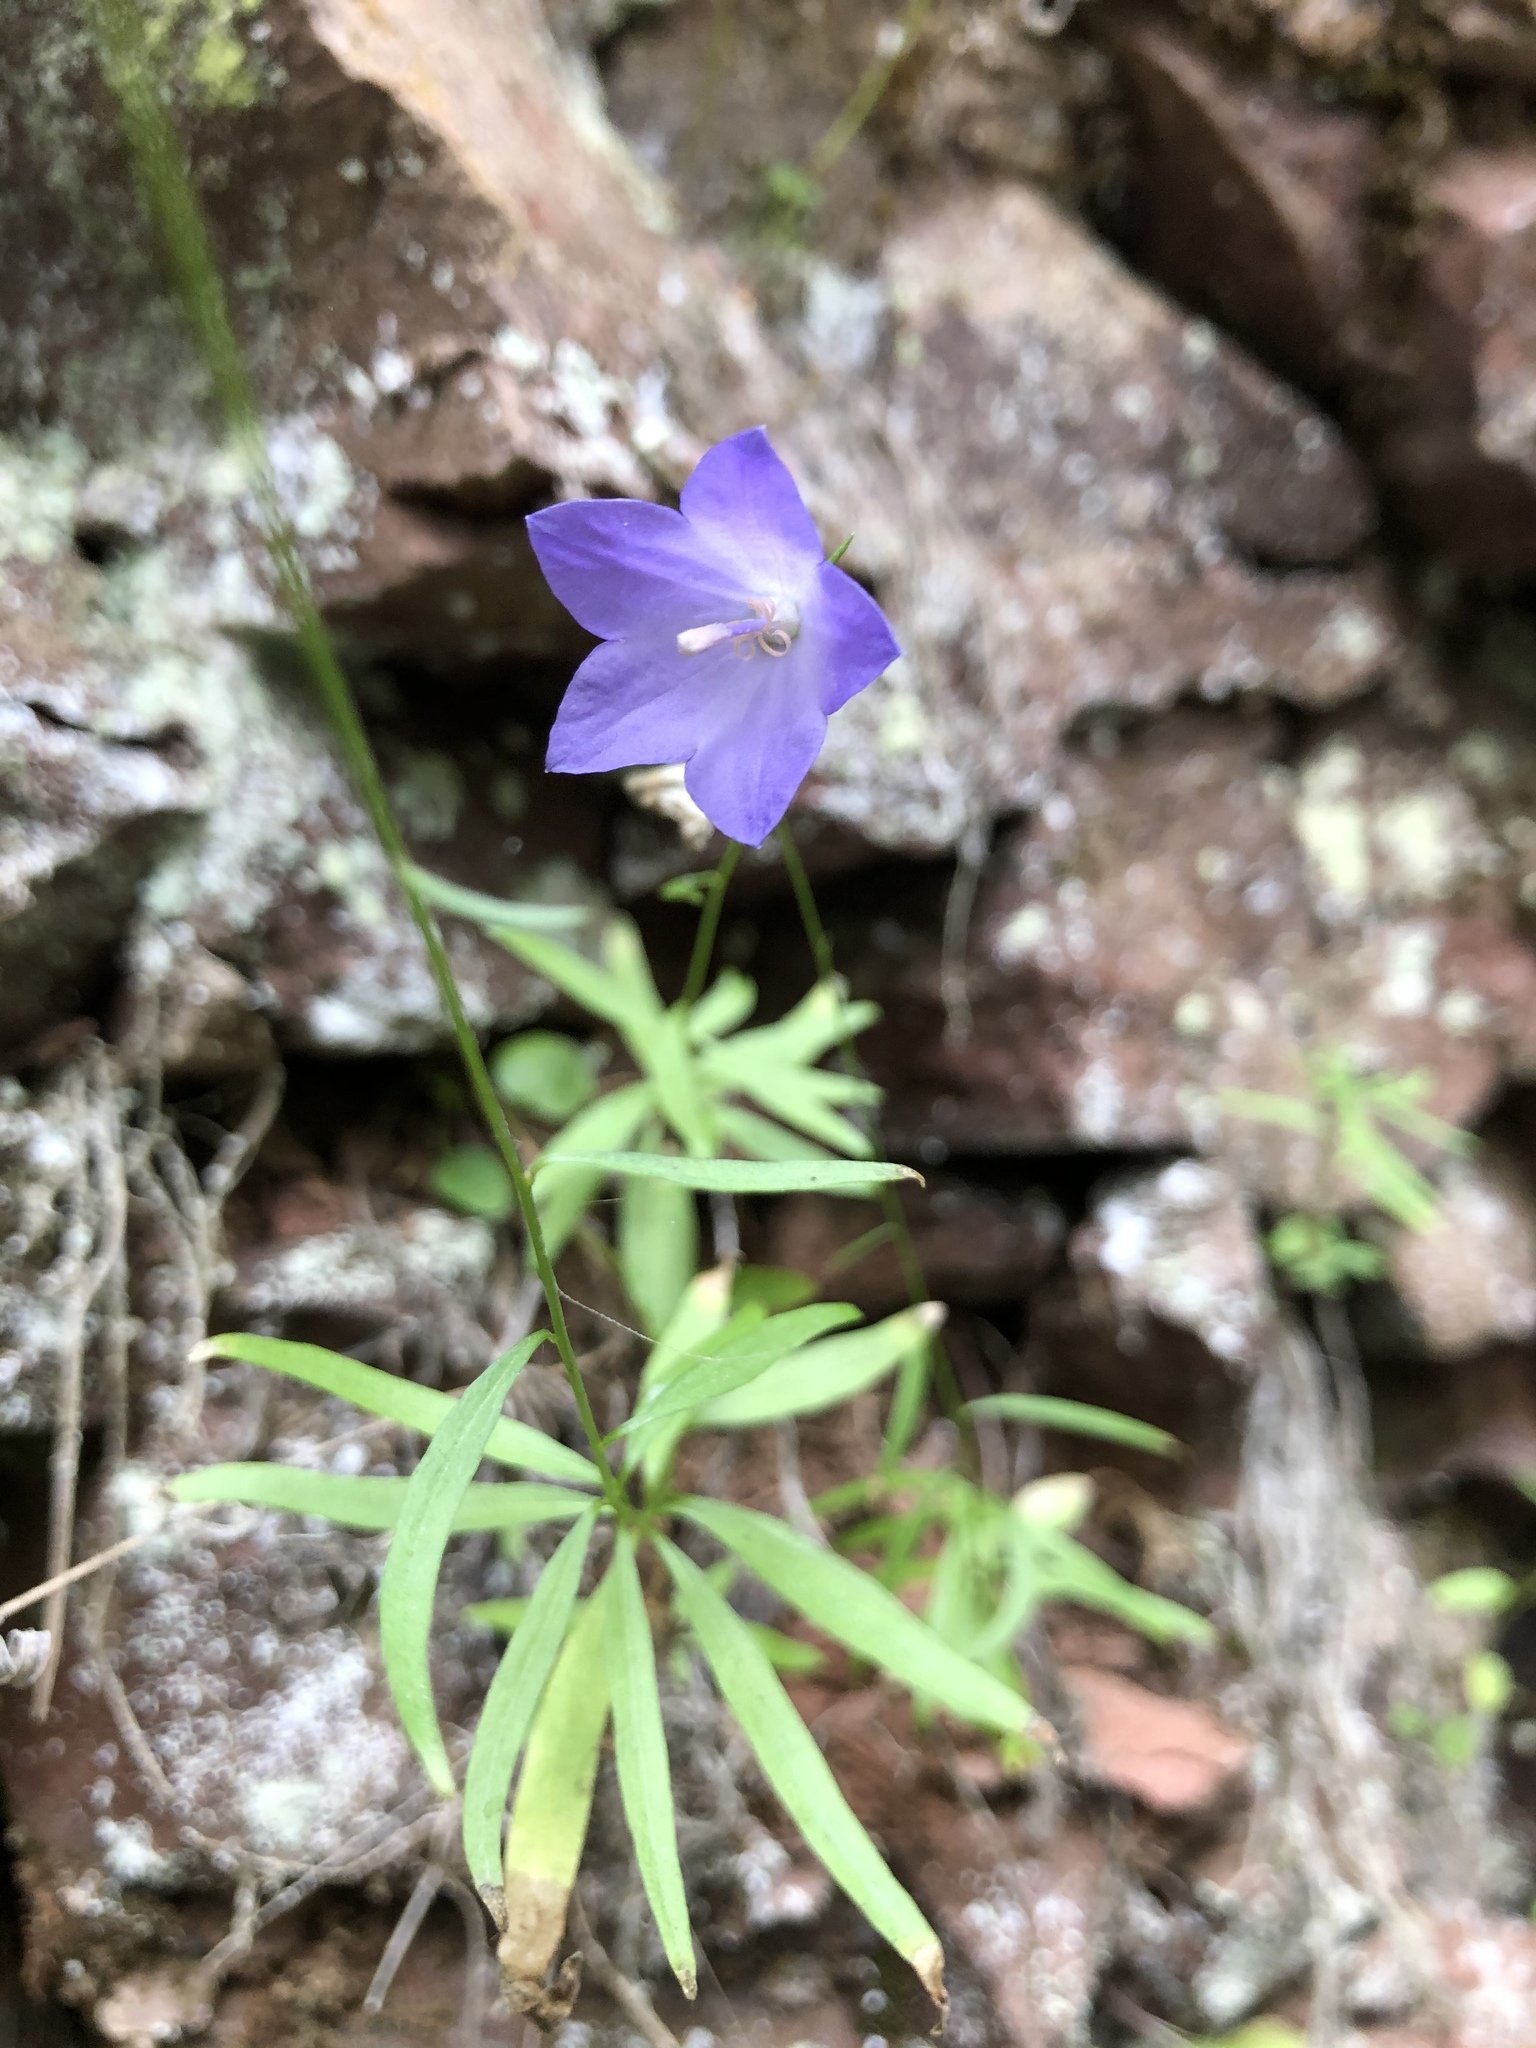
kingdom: Plantae
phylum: Tracheophyta
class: Magnoliopsida
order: Asterales
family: Campanulaceae
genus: Campanula
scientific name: Campanula intercedens
